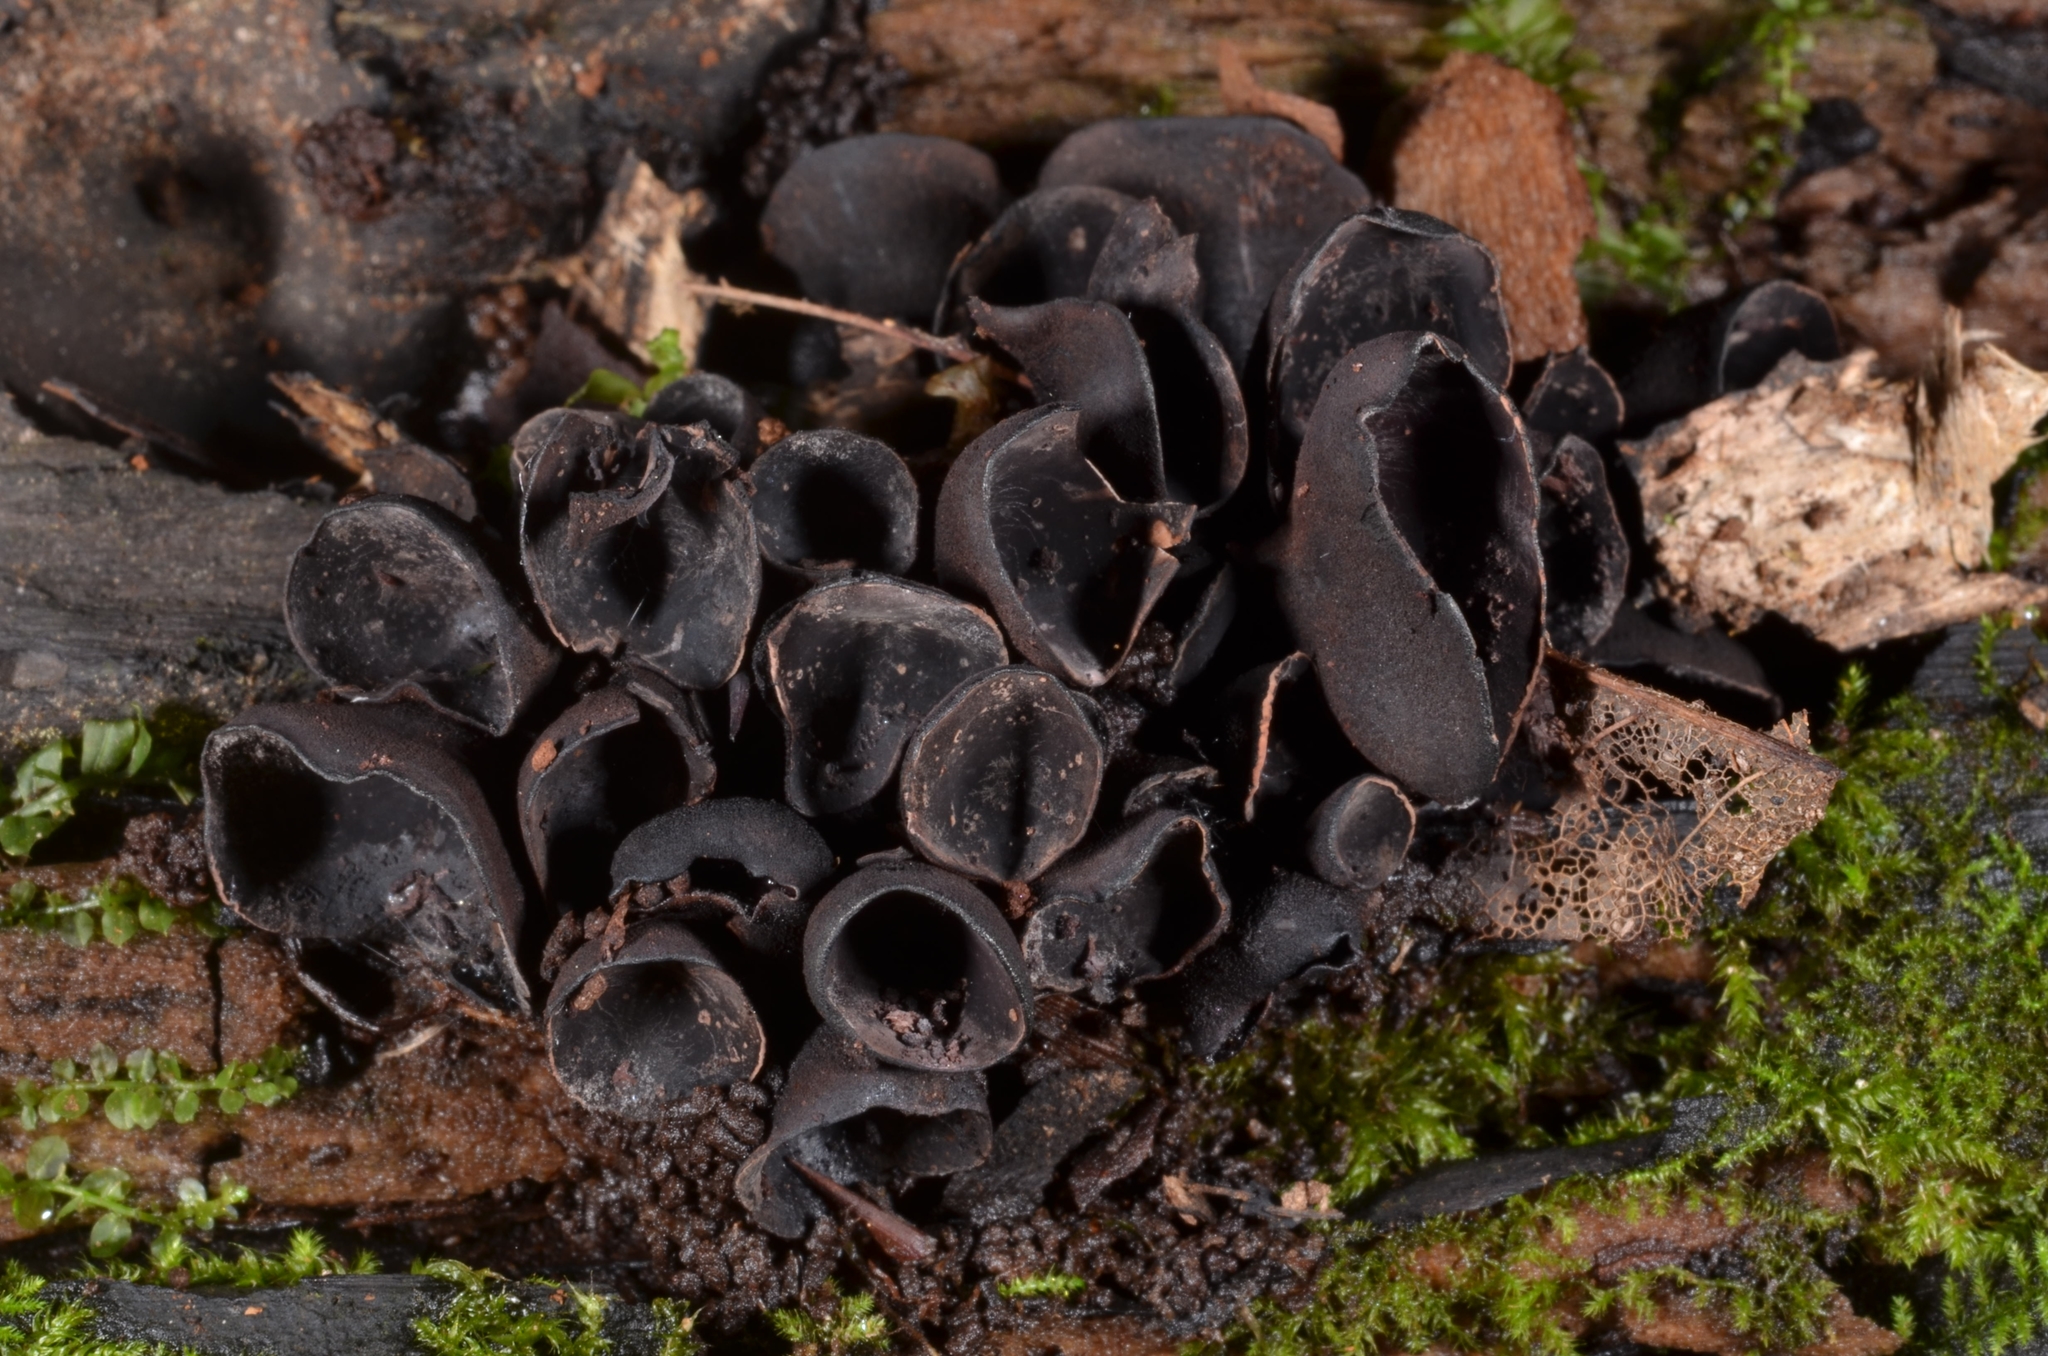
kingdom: Fungi
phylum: Ascomycota
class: Leotiomycetes
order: Helotiales
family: Cordieritidaceae
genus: Ionomidotis
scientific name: Ionomidotis sprucei
